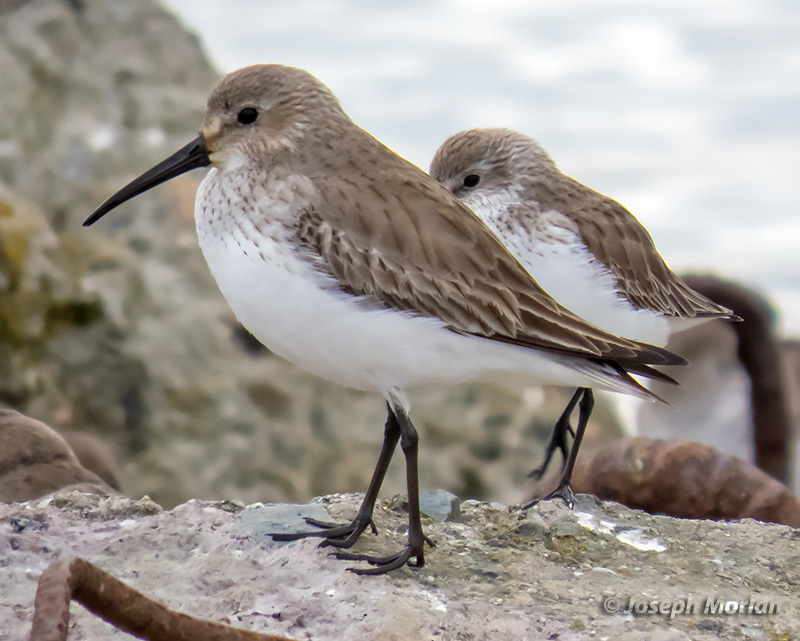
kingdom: Animalia
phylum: Chordata
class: Aves
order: Charadriiformes
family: Scolopacidae
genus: Calidris
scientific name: Calidris alpina
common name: Dunlin
